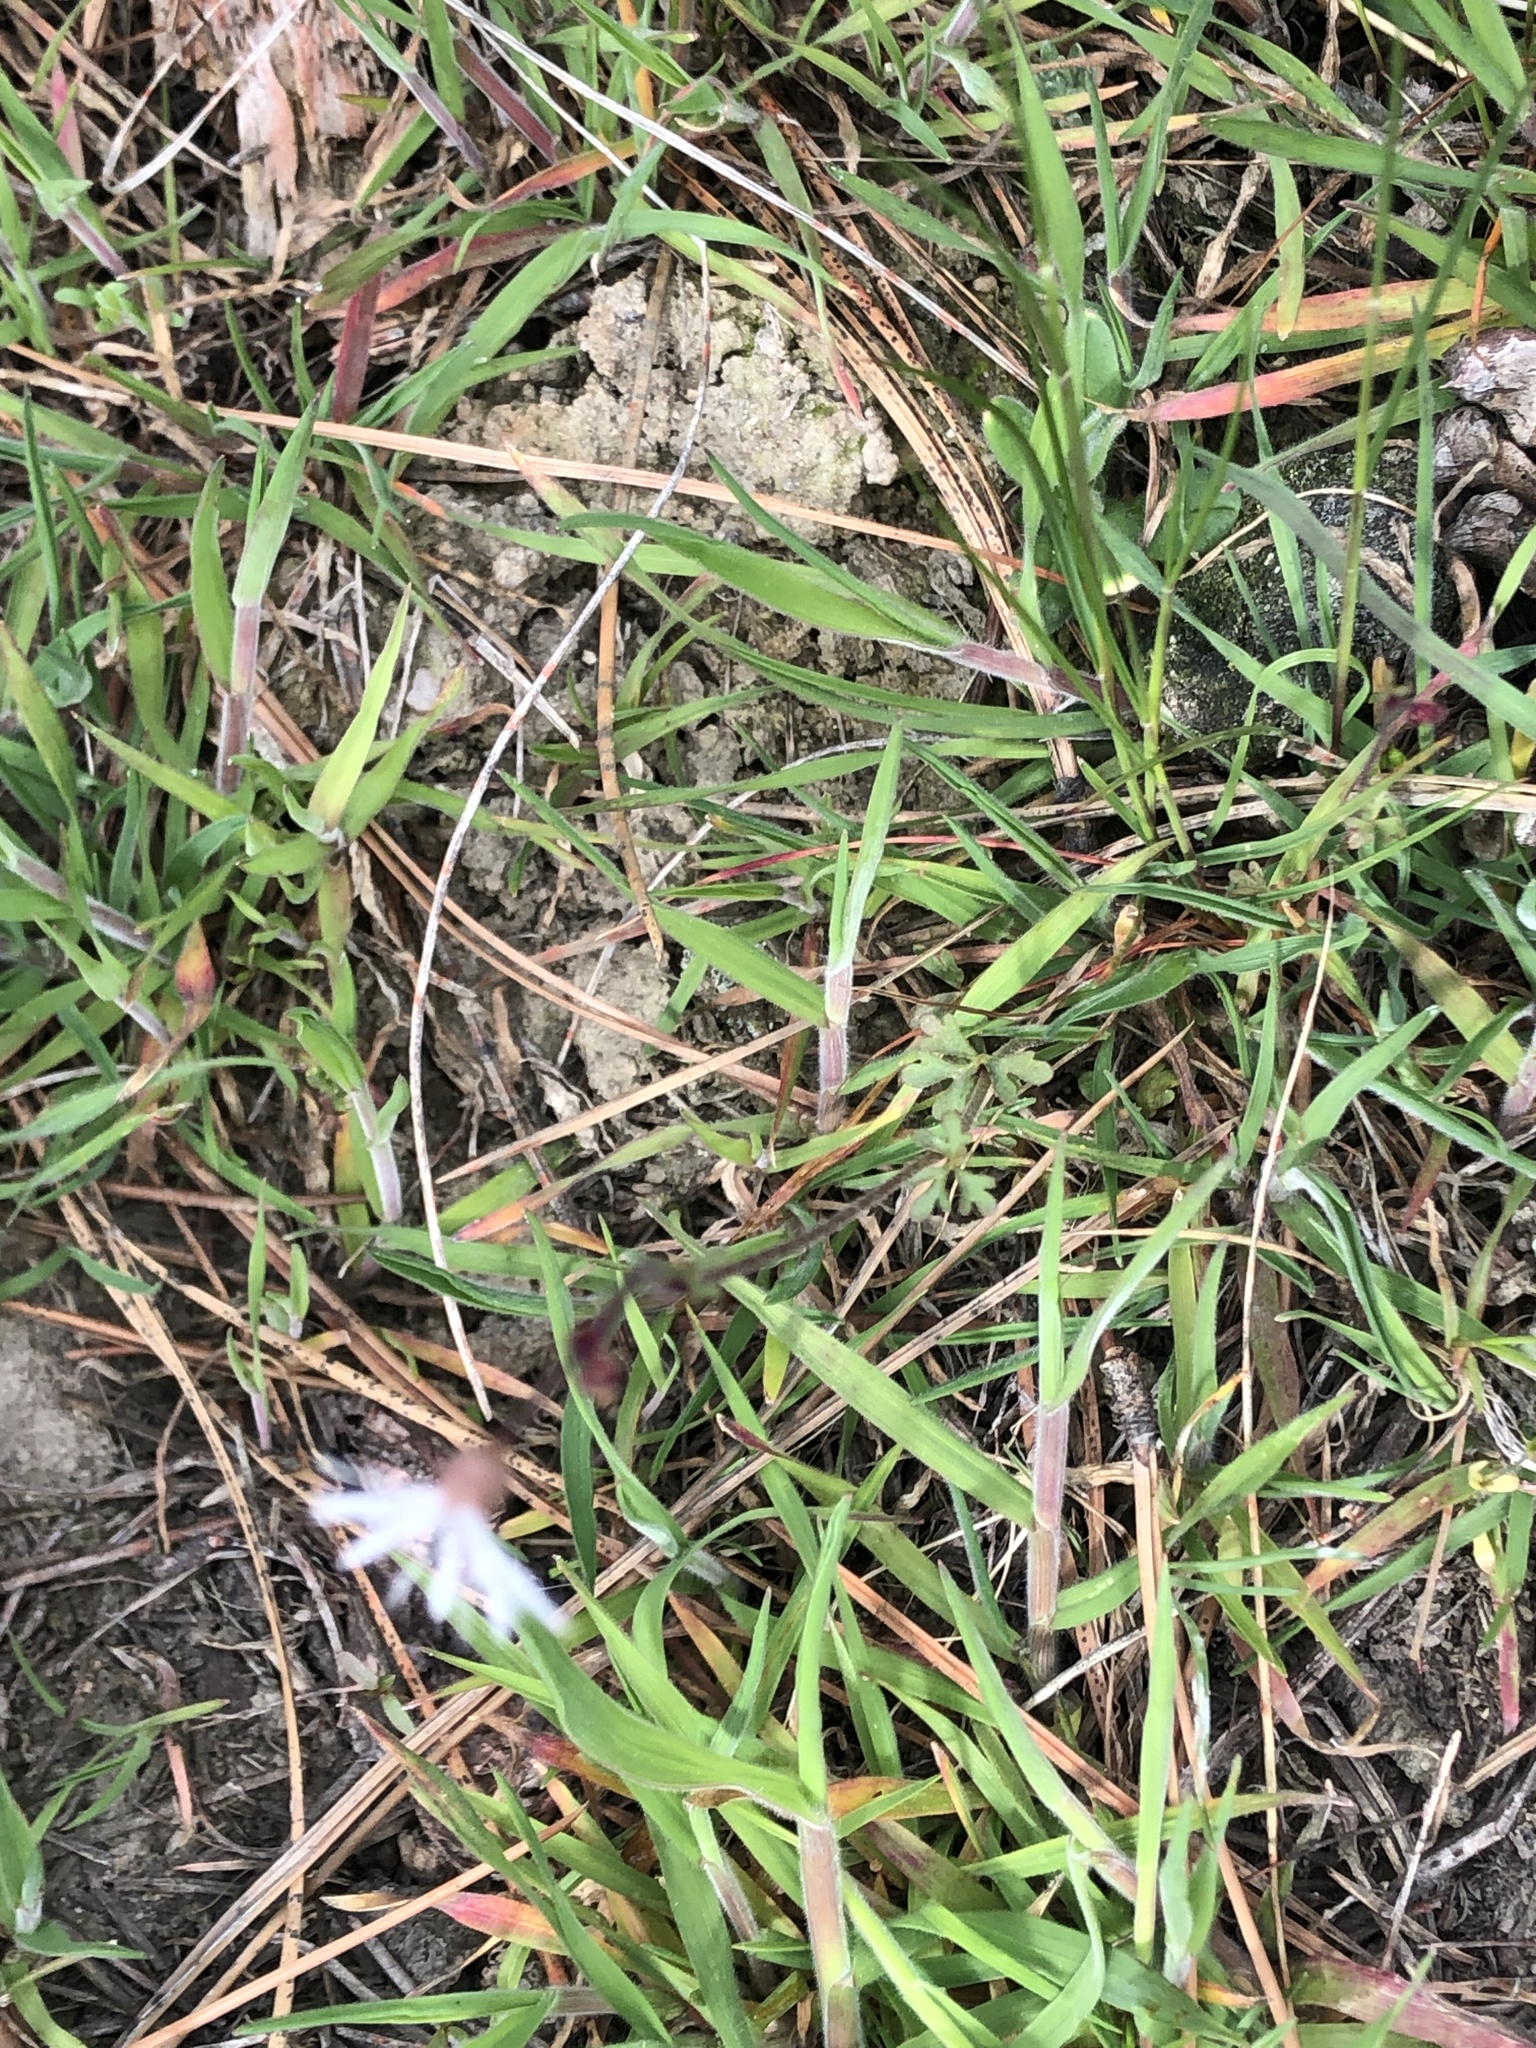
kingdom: Plantae
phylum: Tracheophyta
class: Magnoliopsida
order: Saxifragales
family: Saxifragaceae
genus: Lithophragma
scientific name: Lithophragma glabrum
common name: Bulbous prairie-star
